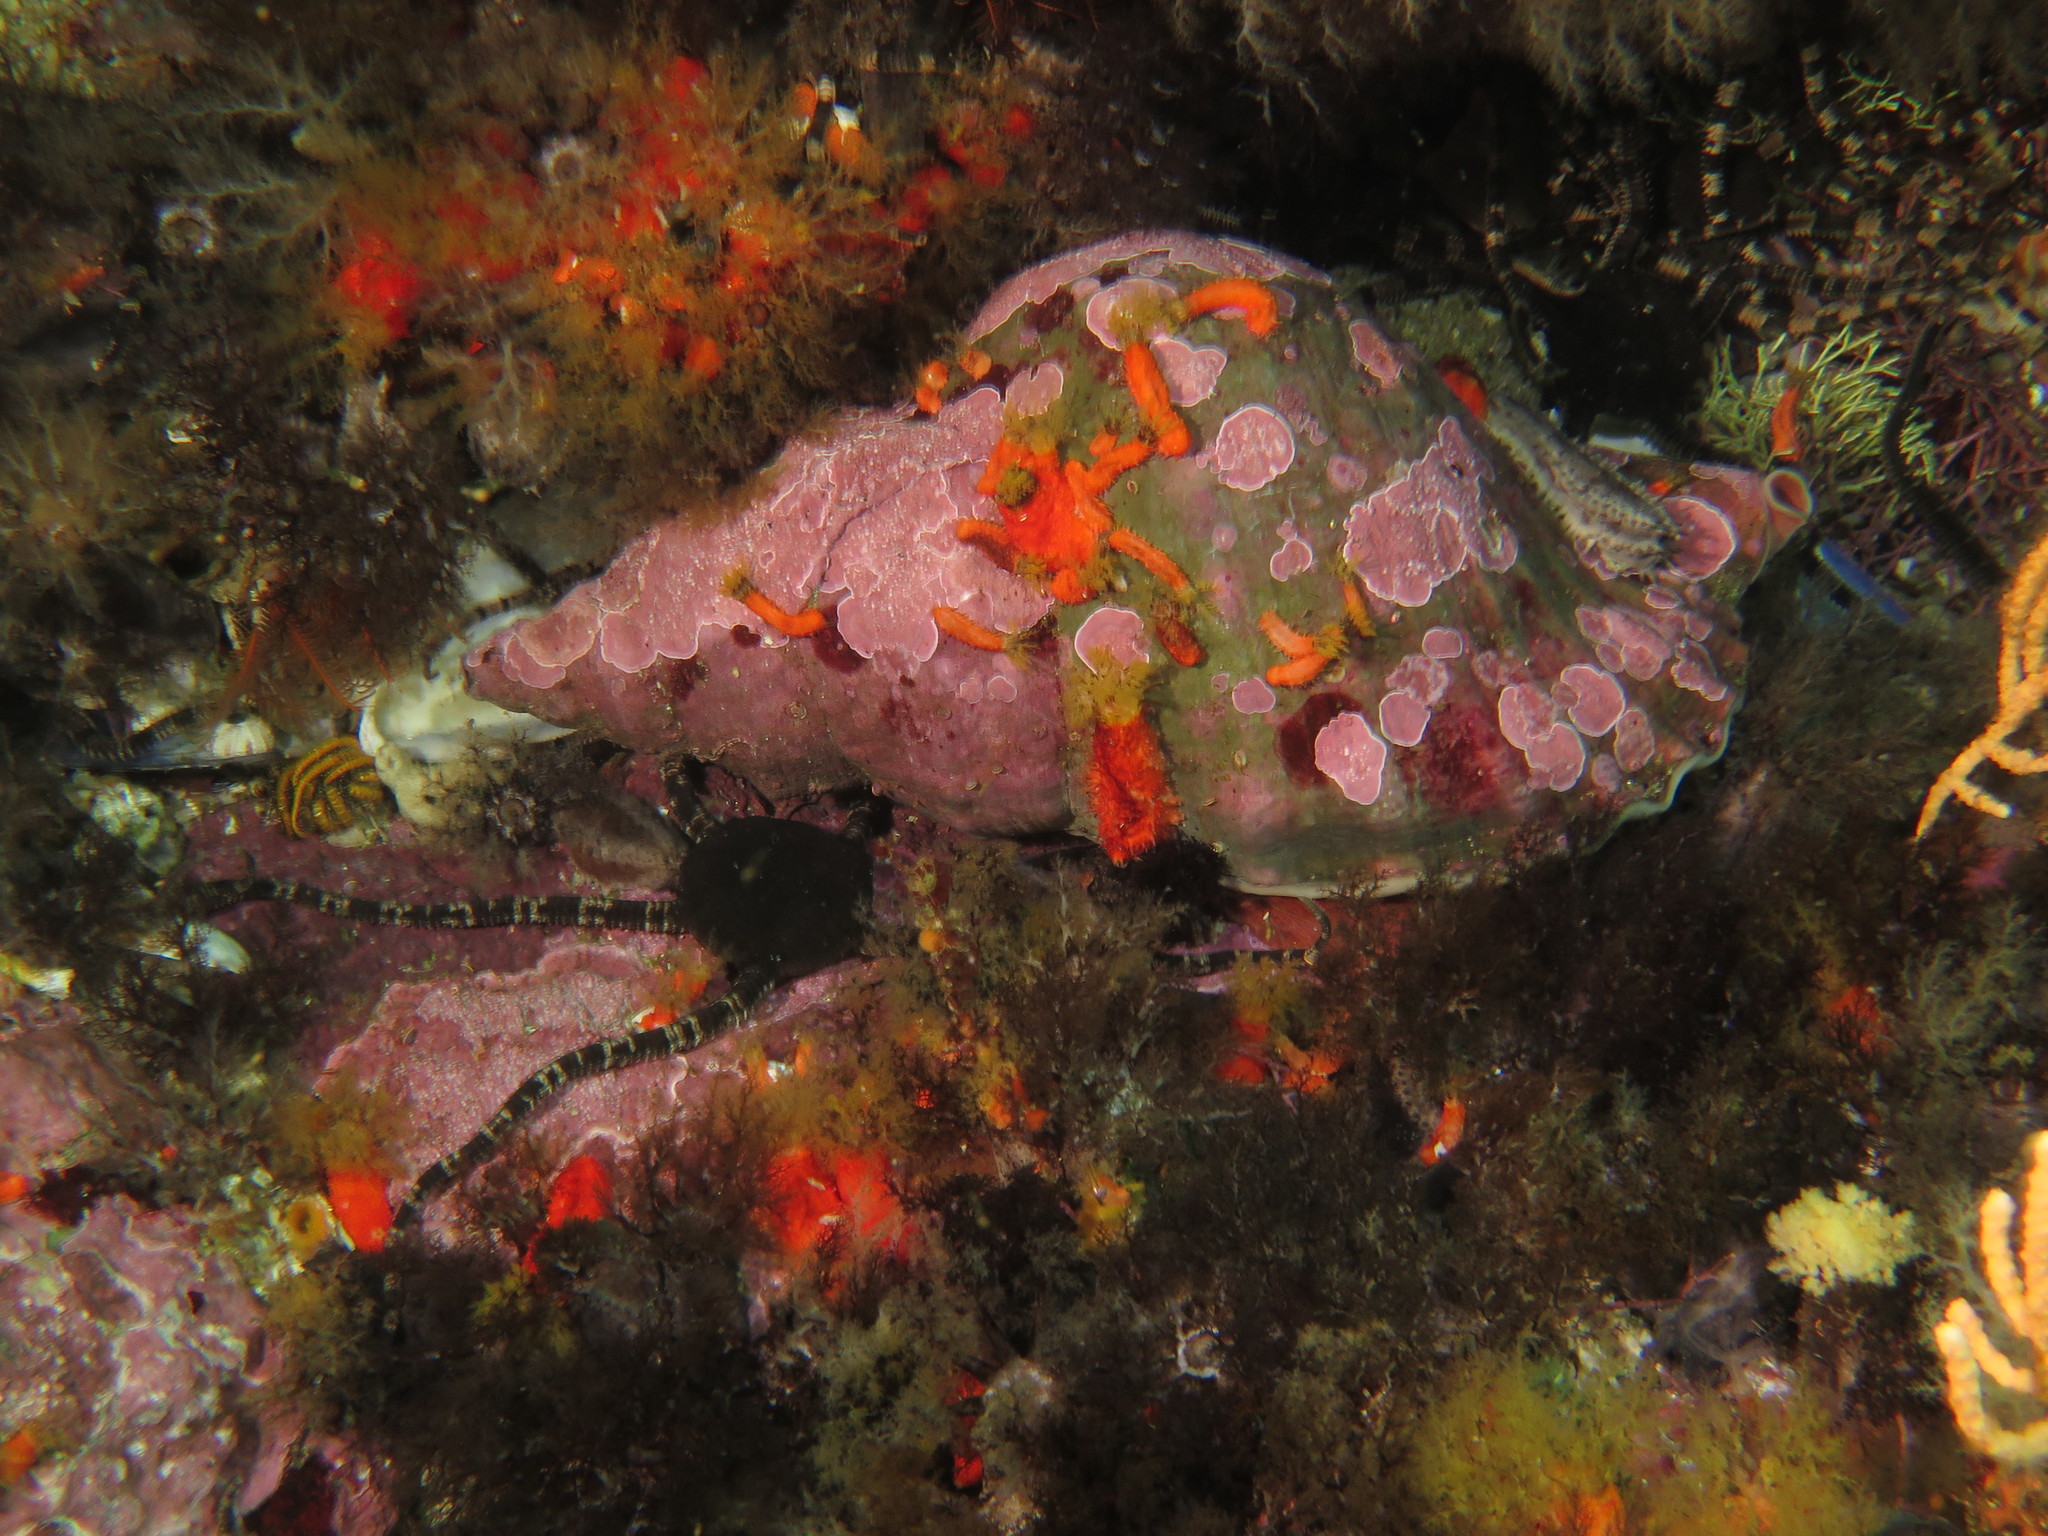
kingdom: Animalia
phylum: Mollusca
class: Gastropoda
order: Littorinimorpha
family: Charoniidae
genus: Charonia
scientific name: Charonia lampas
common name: Knobbed triton
